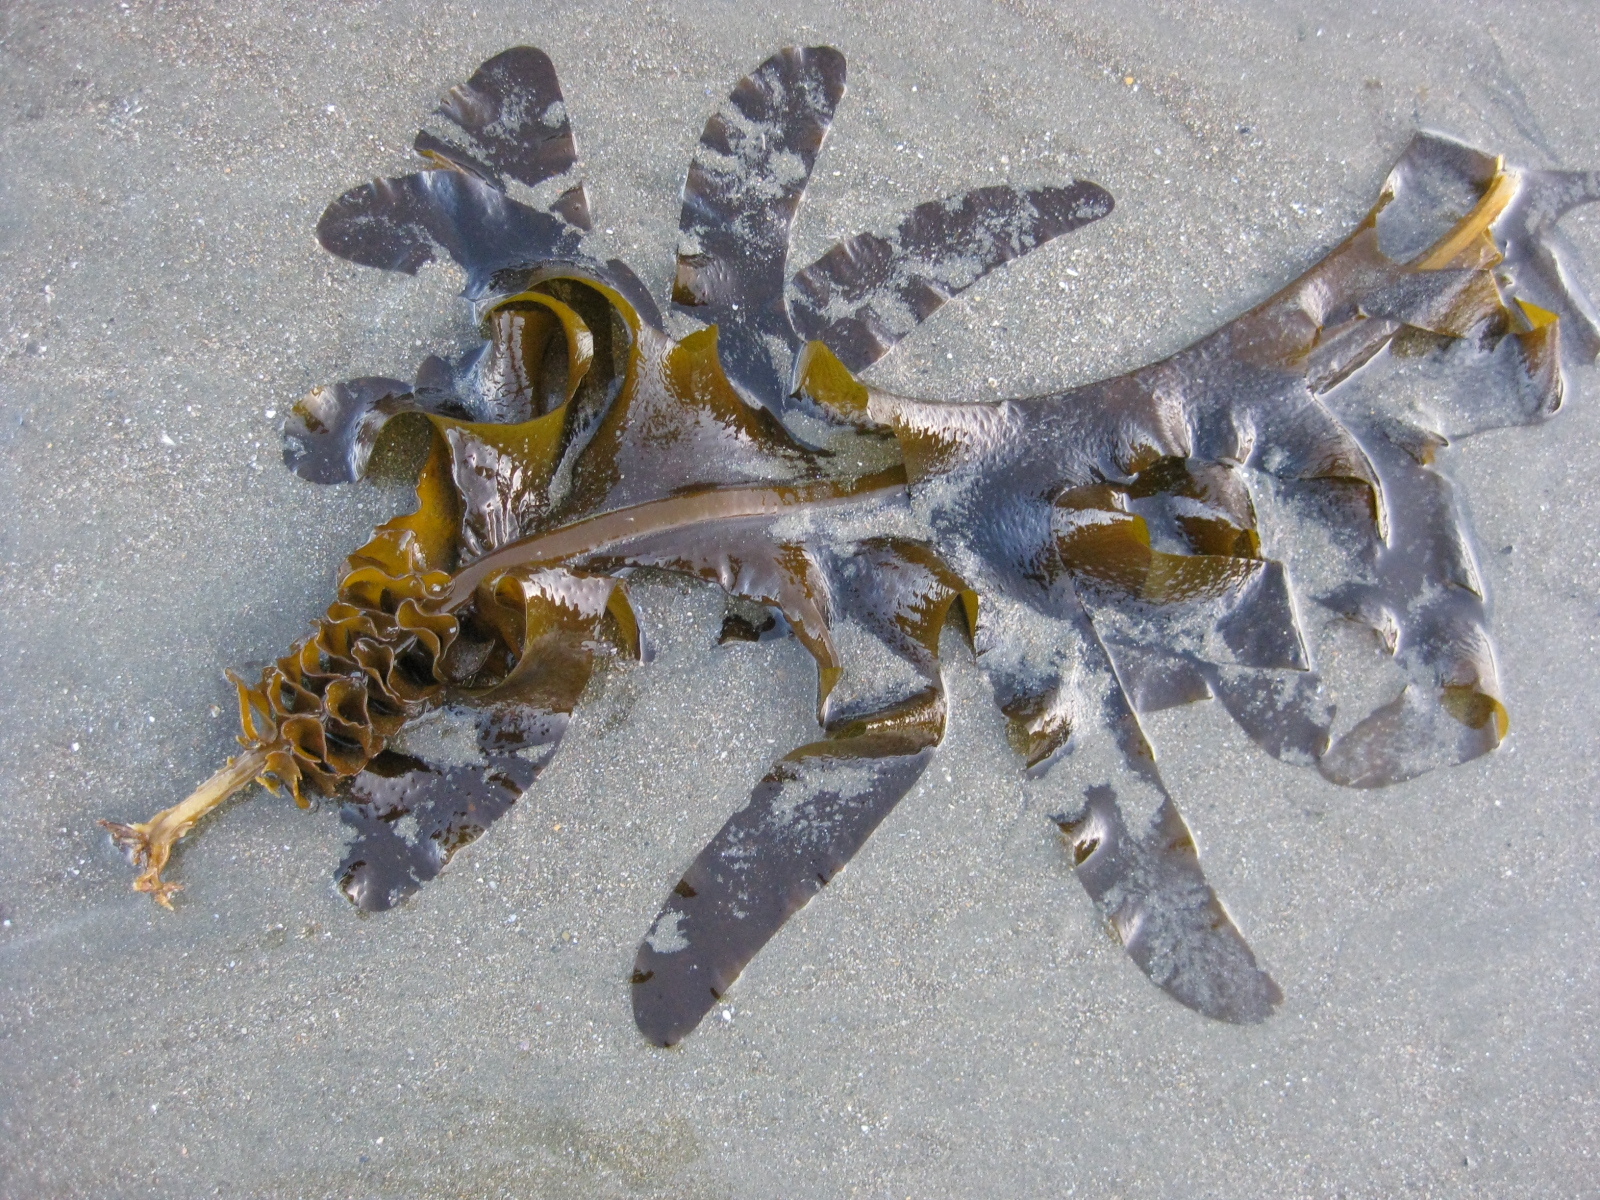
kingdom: Chromista
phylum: Ochrophyta
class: Phaeophyceae
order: Laminariales
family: Alariaceae
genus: Undaria
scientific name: Undaria pinnatifida
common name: Asian kelp
